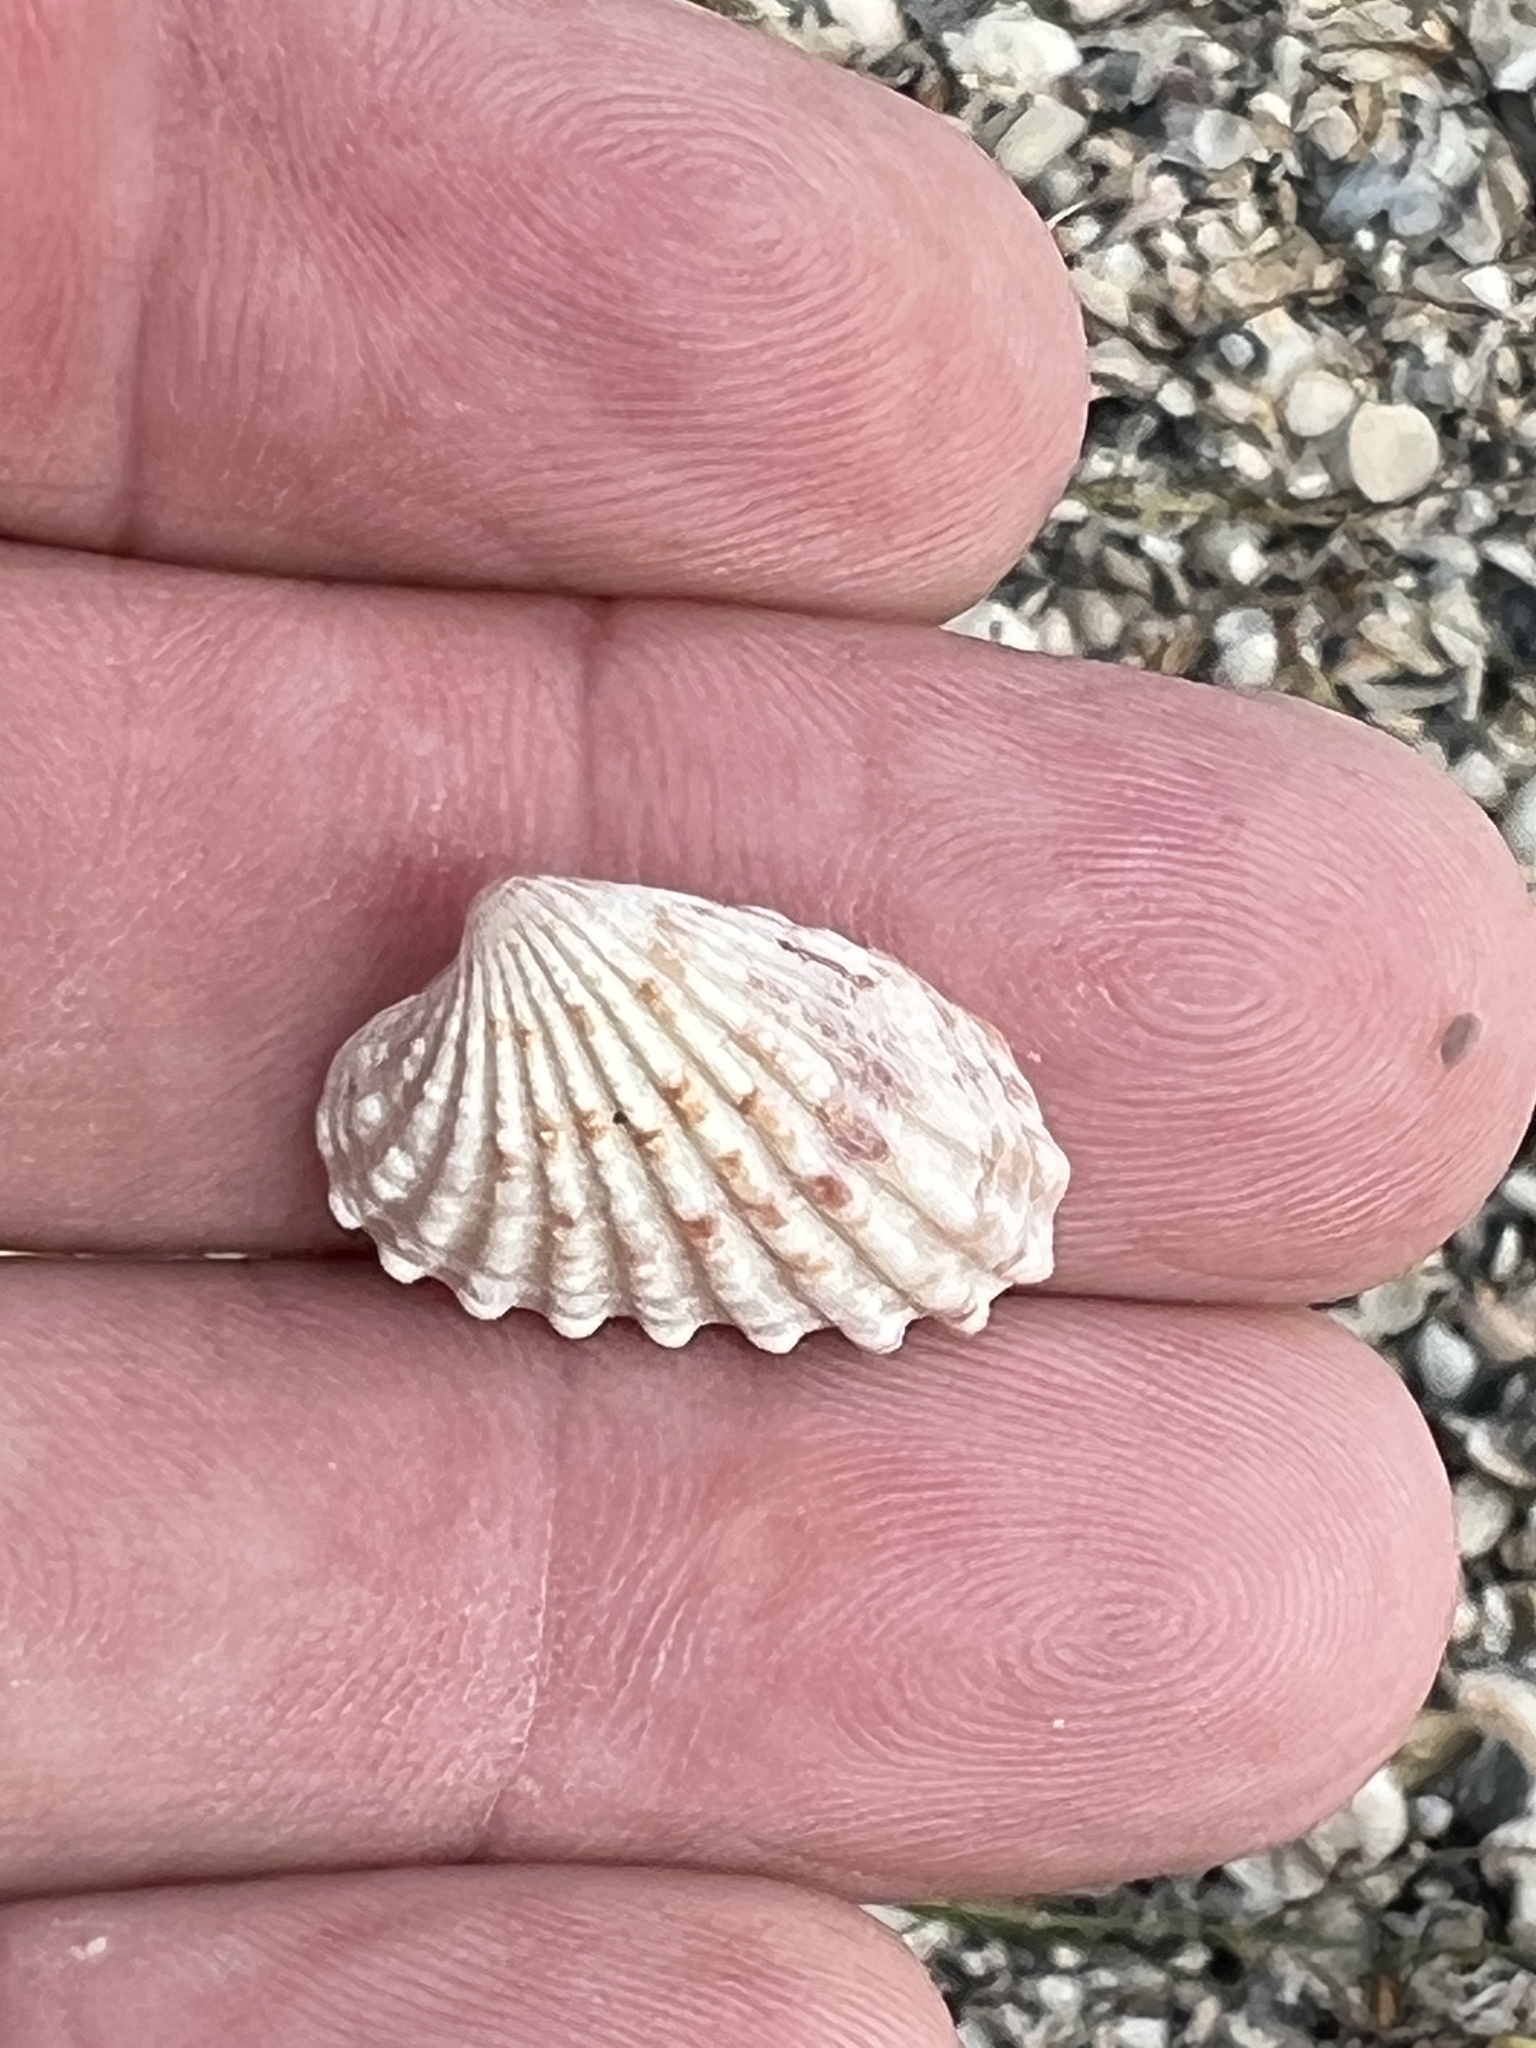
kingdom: Animalia
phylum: Mollusca
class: Bivalvia
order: Carditida
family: Carditidae
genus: Cardites
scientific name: Cardites floridanus
